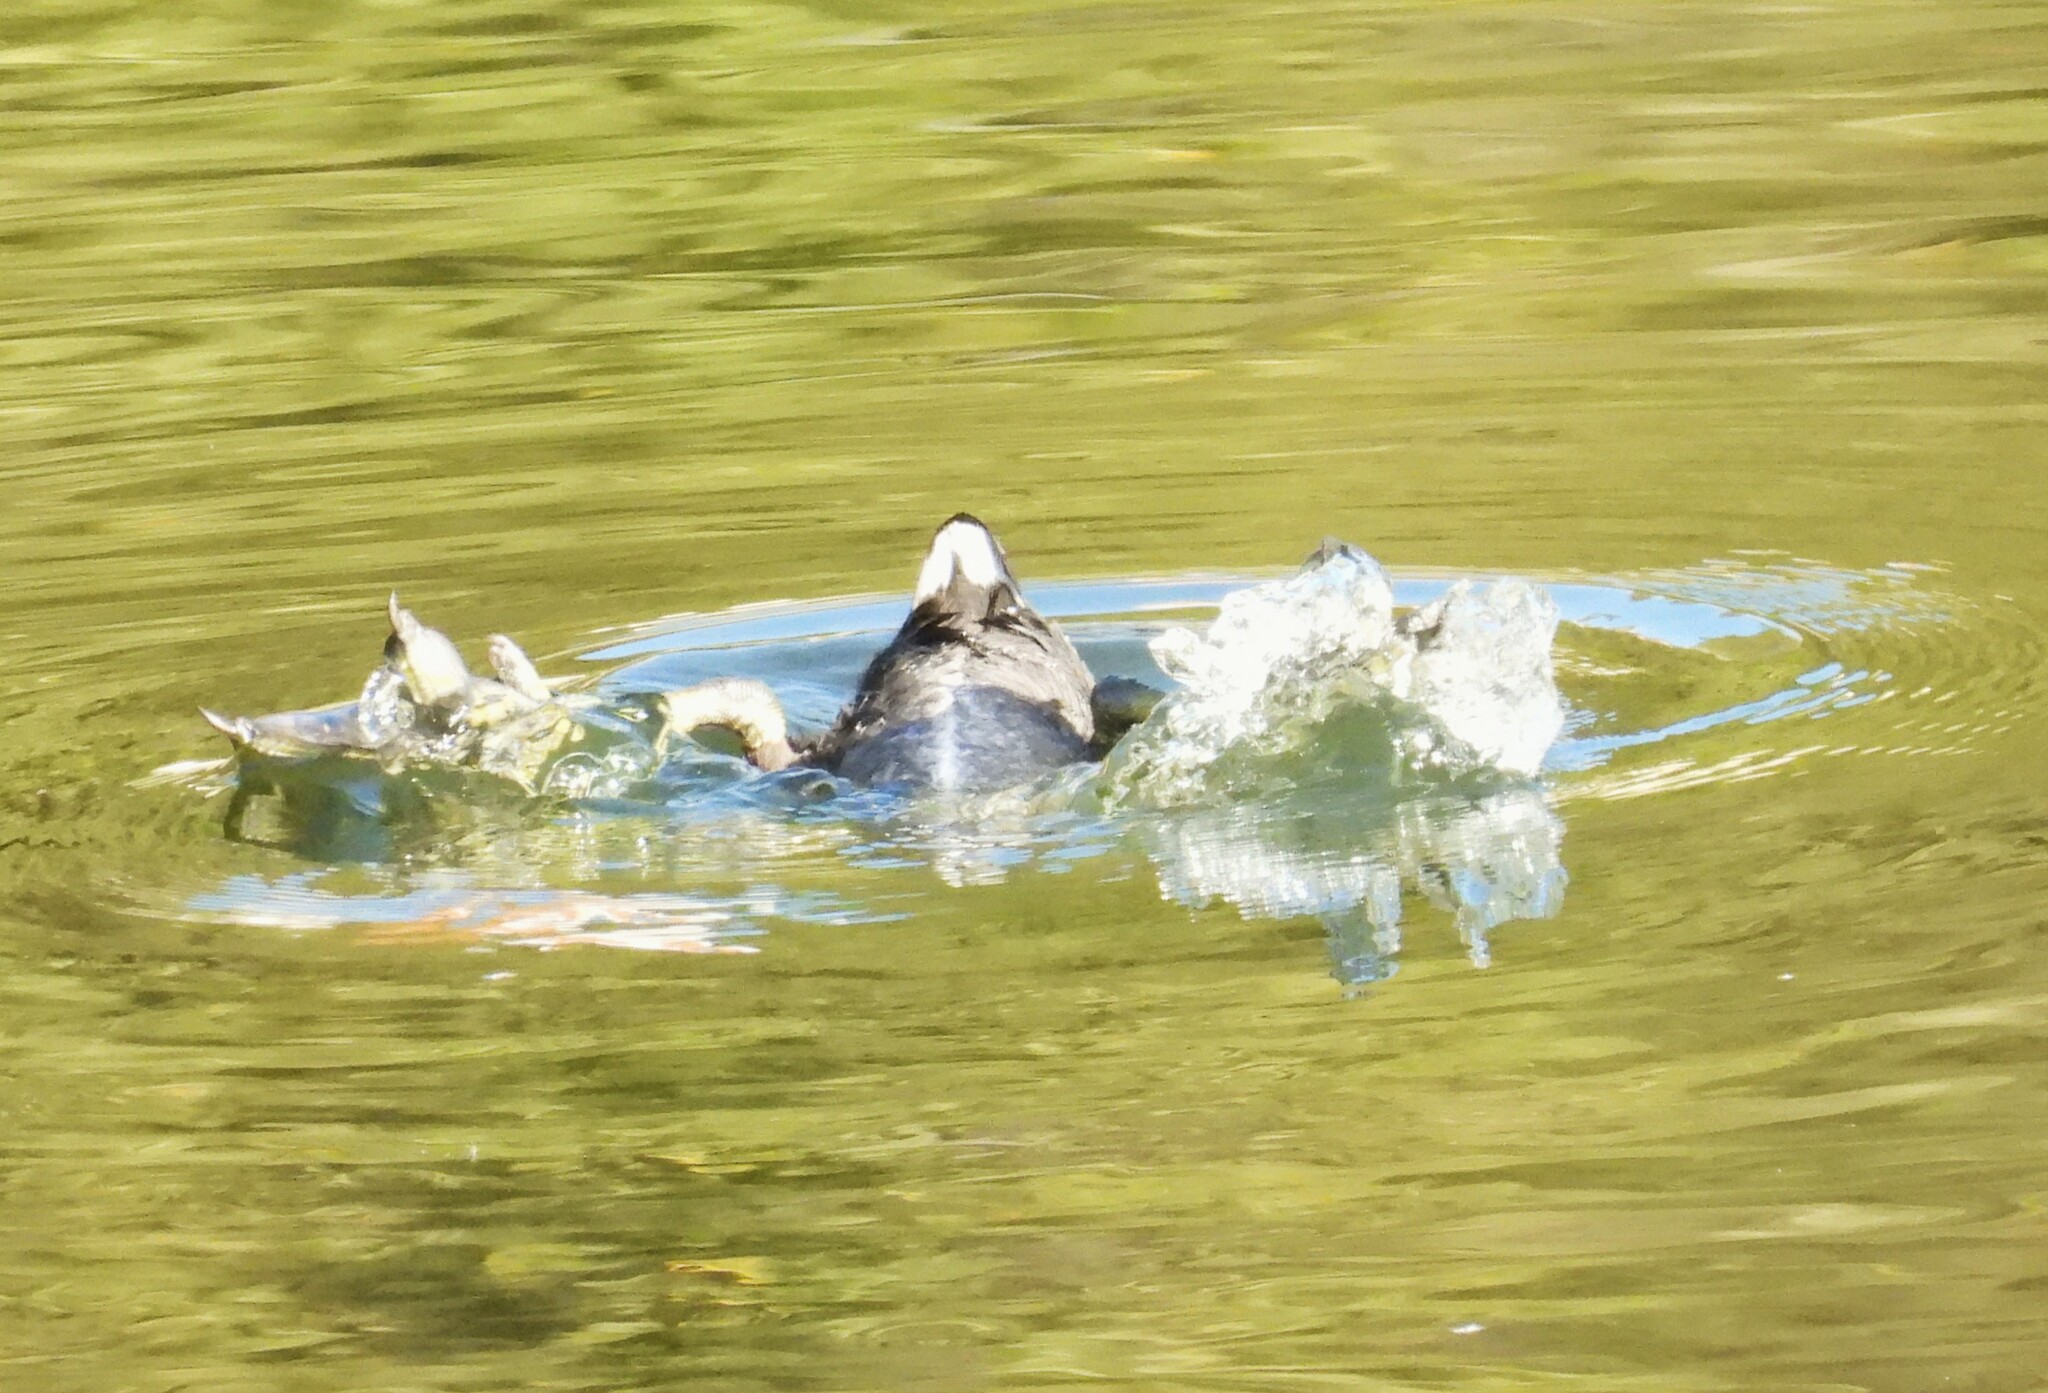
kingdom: Animalia
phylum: Chordata
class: Aves
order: Gruiformes
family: Rallidae
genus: Fulica
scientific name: Fulica americana
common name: American coot
